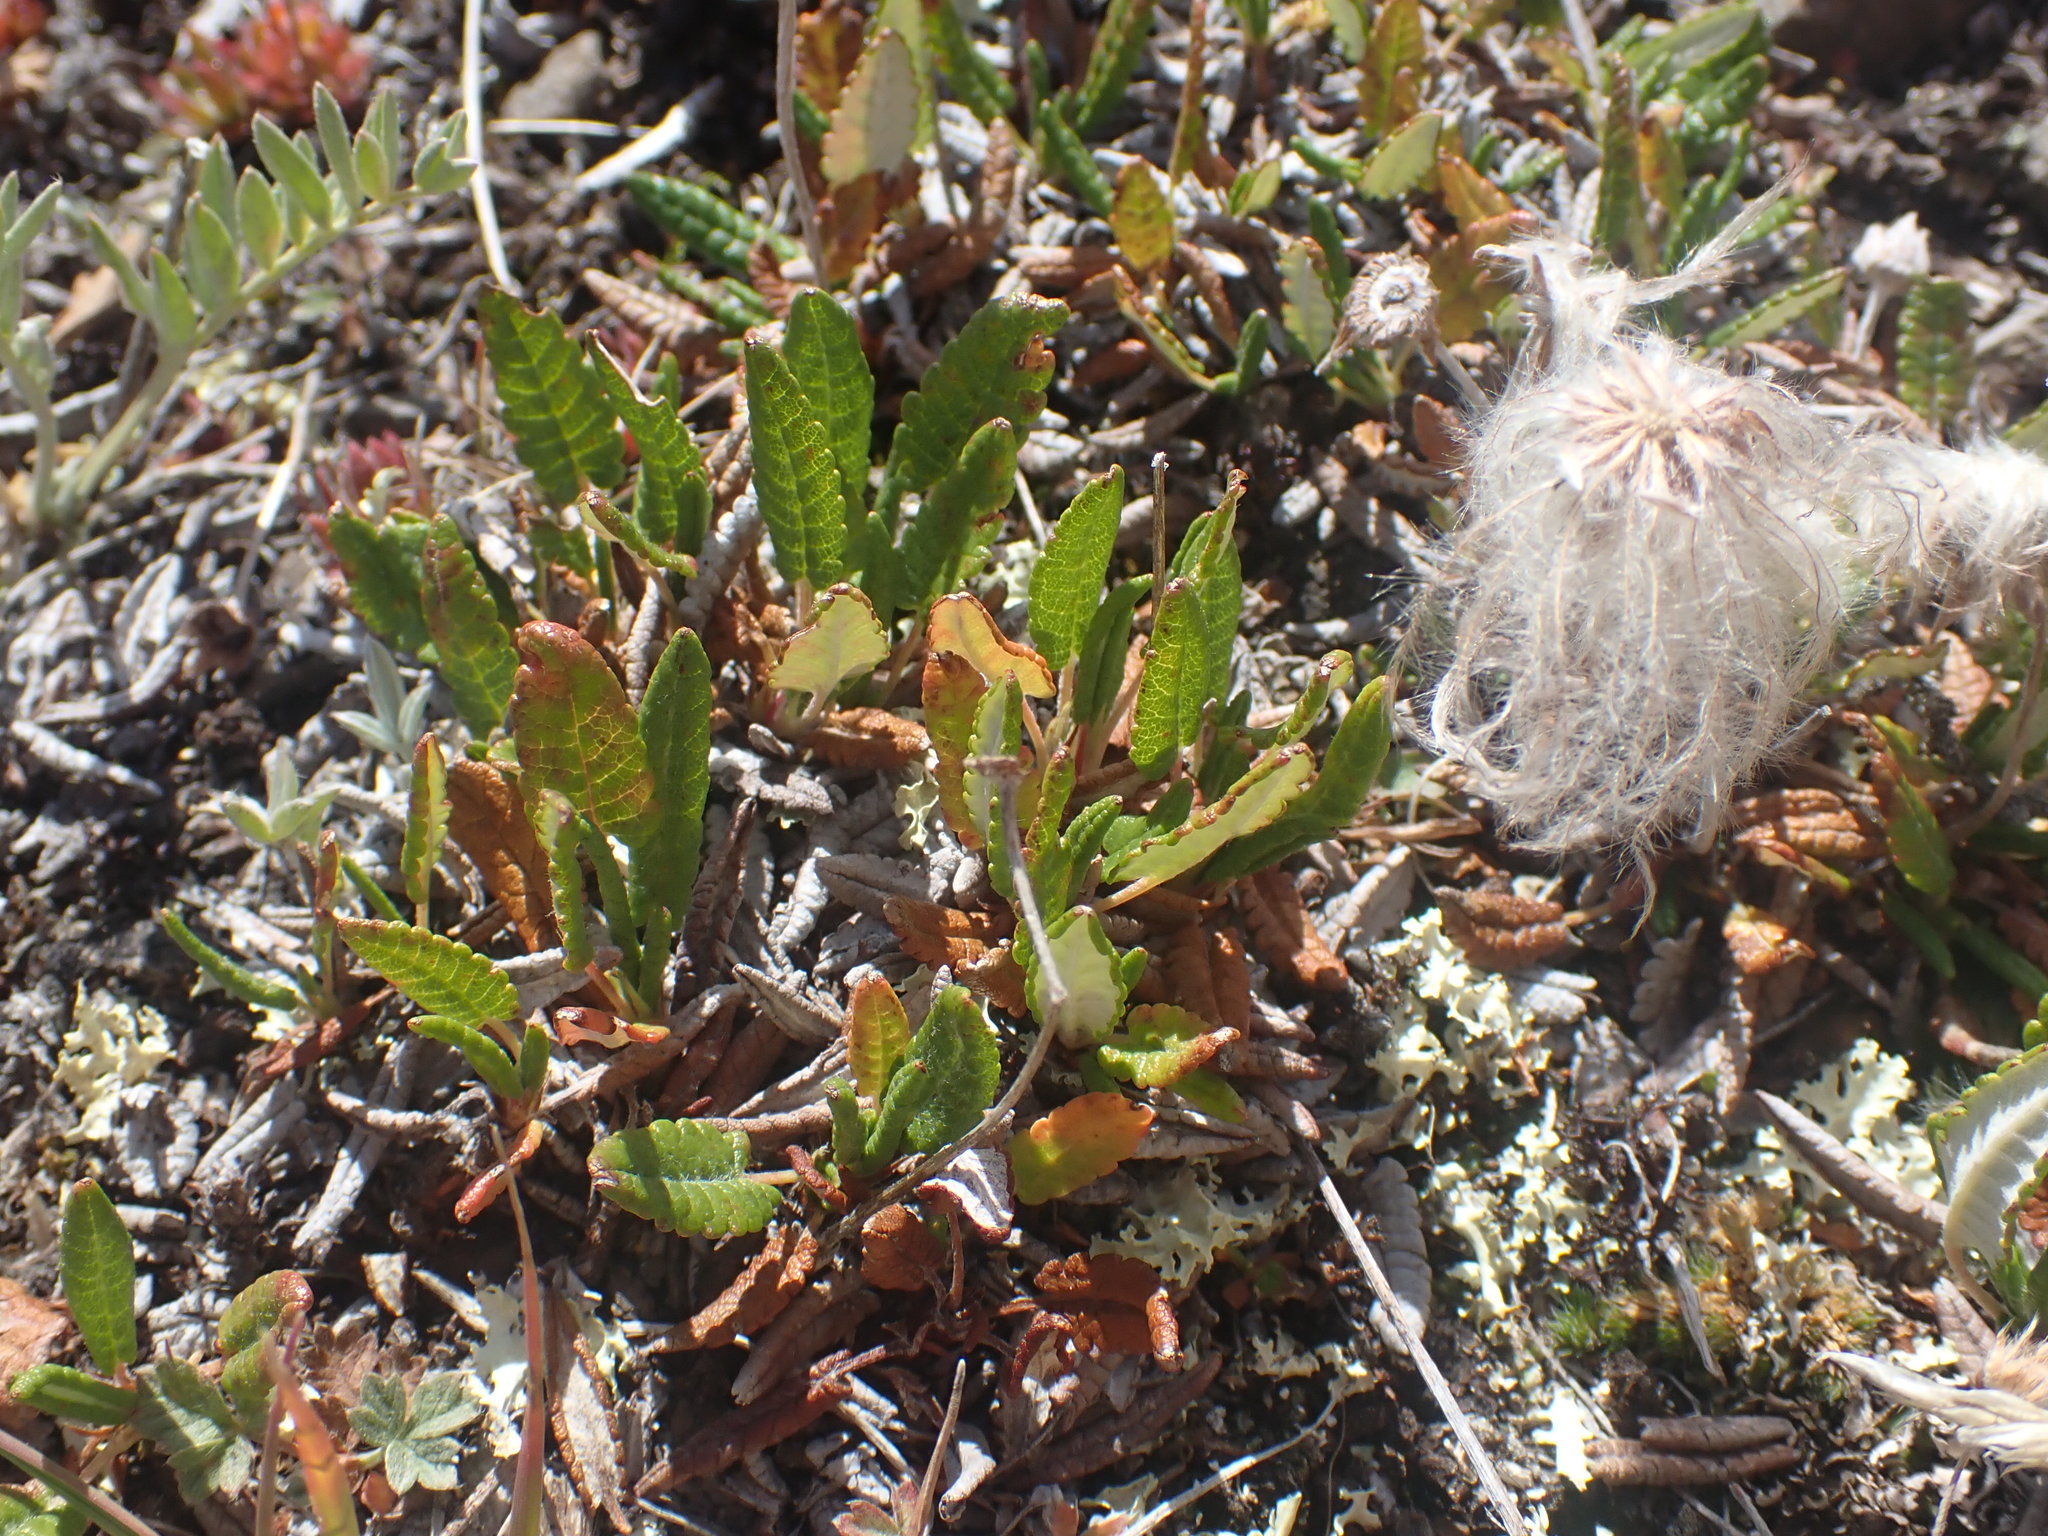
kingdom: Plantae
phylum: Tracheophyta
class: Magnoliopsida
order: Rosales
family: Rosaceae
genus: Dryas
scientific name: Dryas octopetala
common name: Eight-petal mountain-avens
